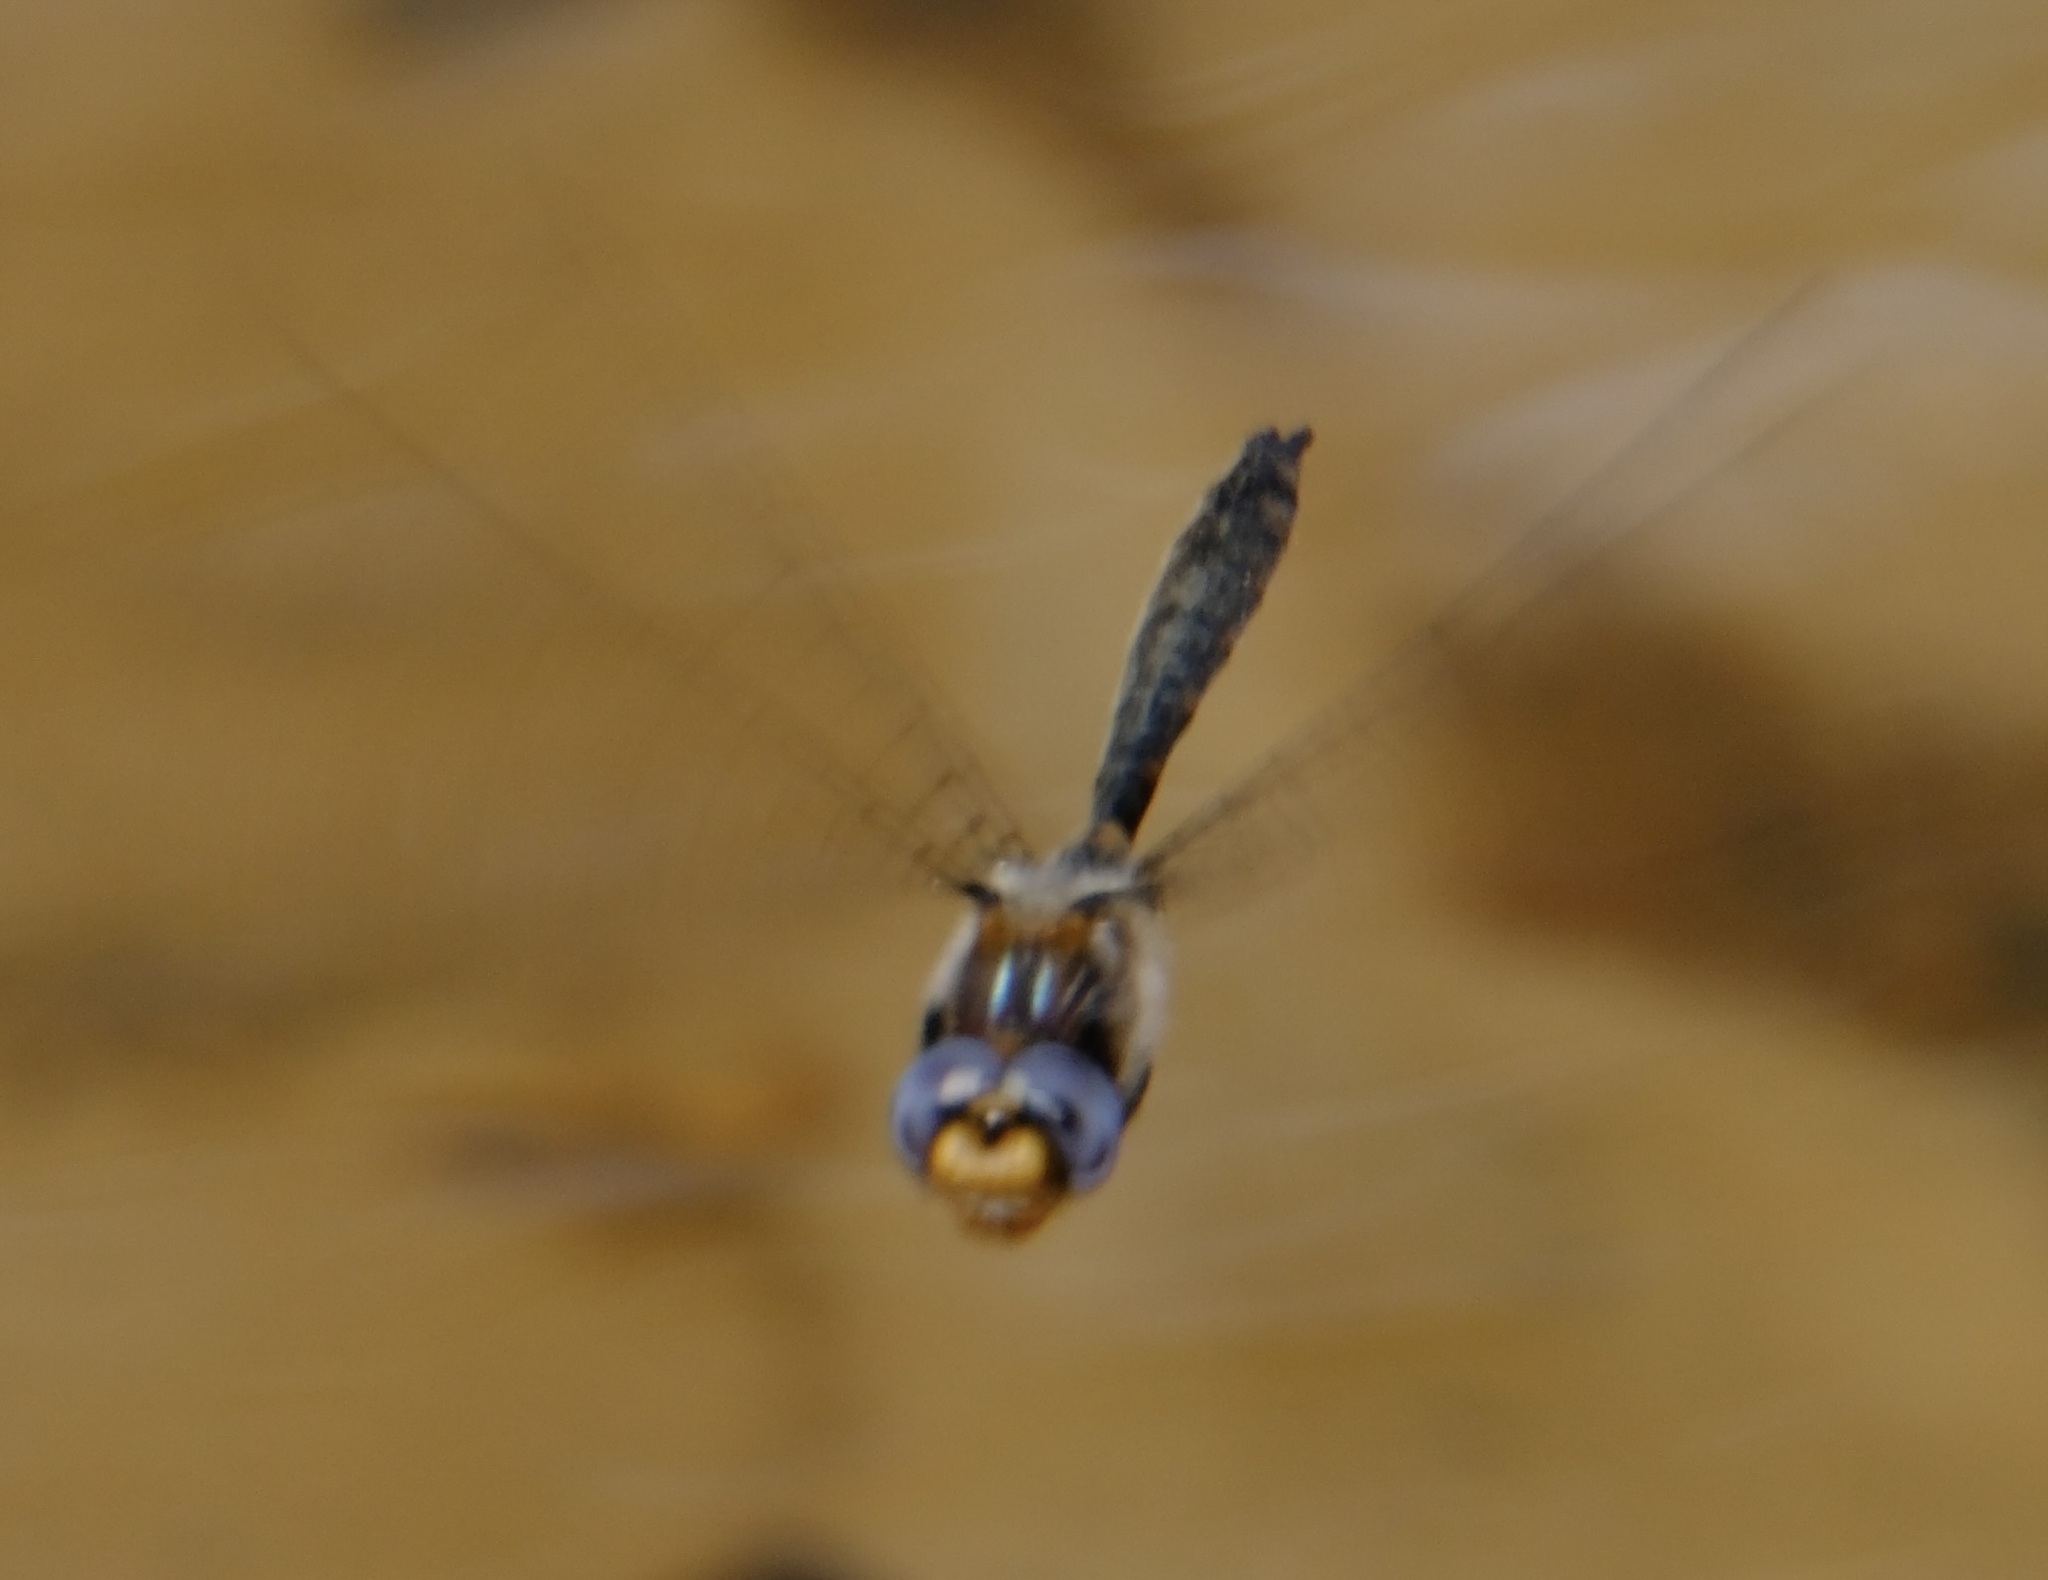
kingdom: Animalia
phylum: Arthropoda
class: Insecta
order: Odonata
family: Corduliidae
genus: Helocordulia
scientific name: Helocordulia selysii
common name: Selys's sundragon
